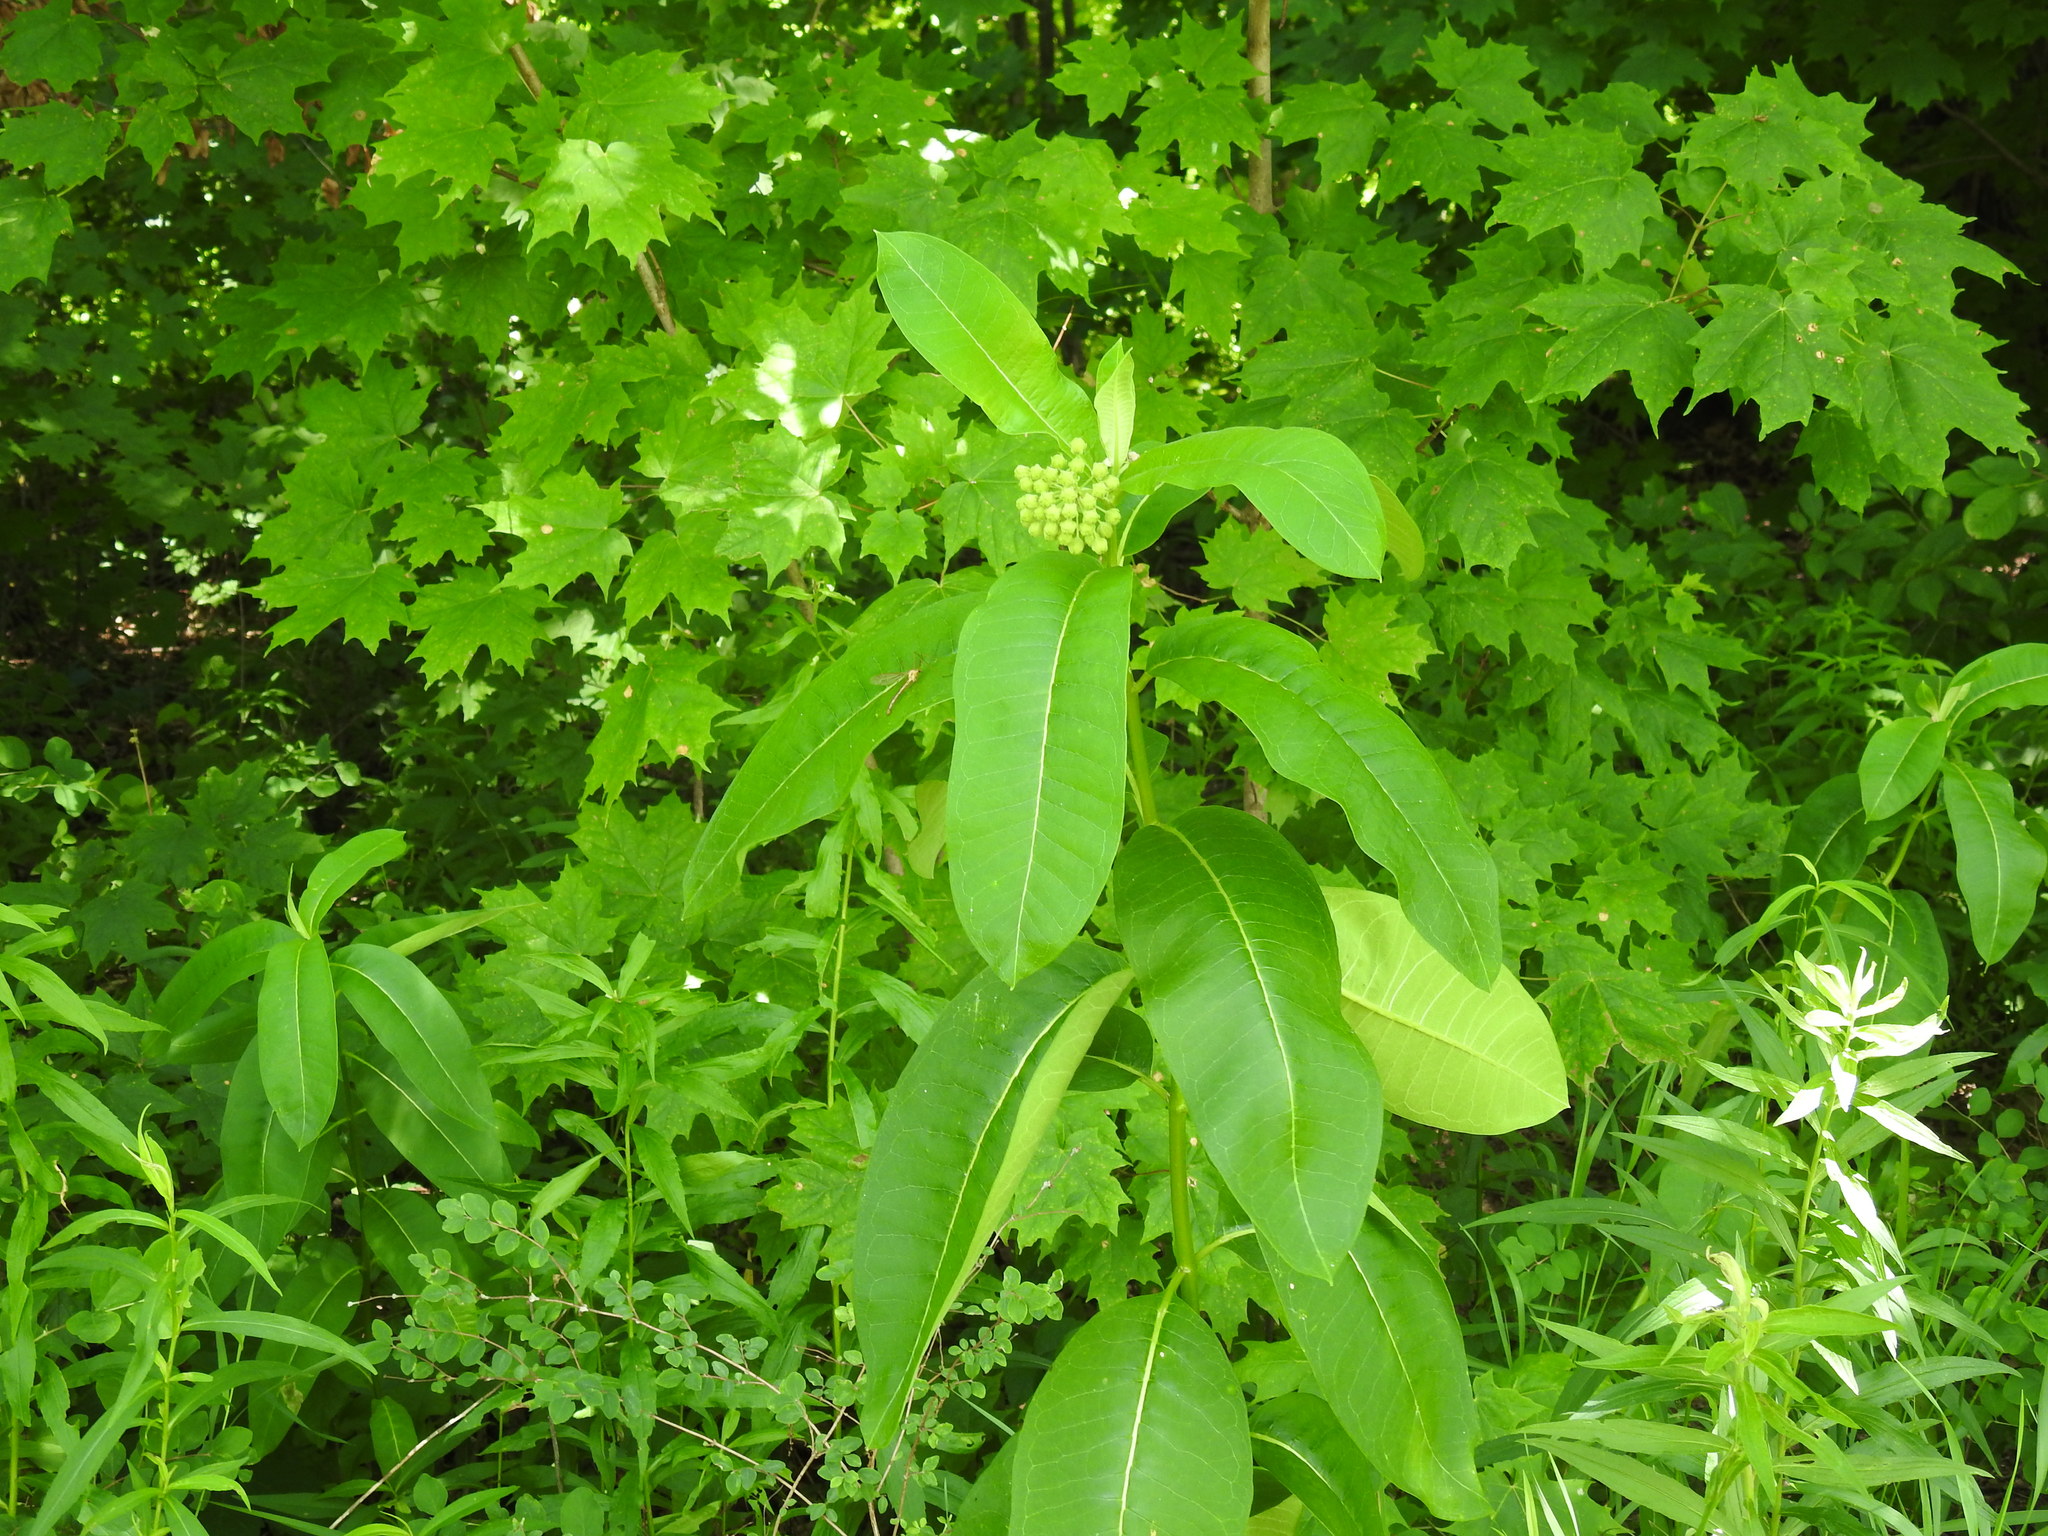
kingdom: Plantae
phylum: Tracheophyta
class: Magnoliopsida
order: Gentianales
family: Apocynaceae
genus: Asclepias
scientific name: Asclepias syriaca
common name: Common milkweed
